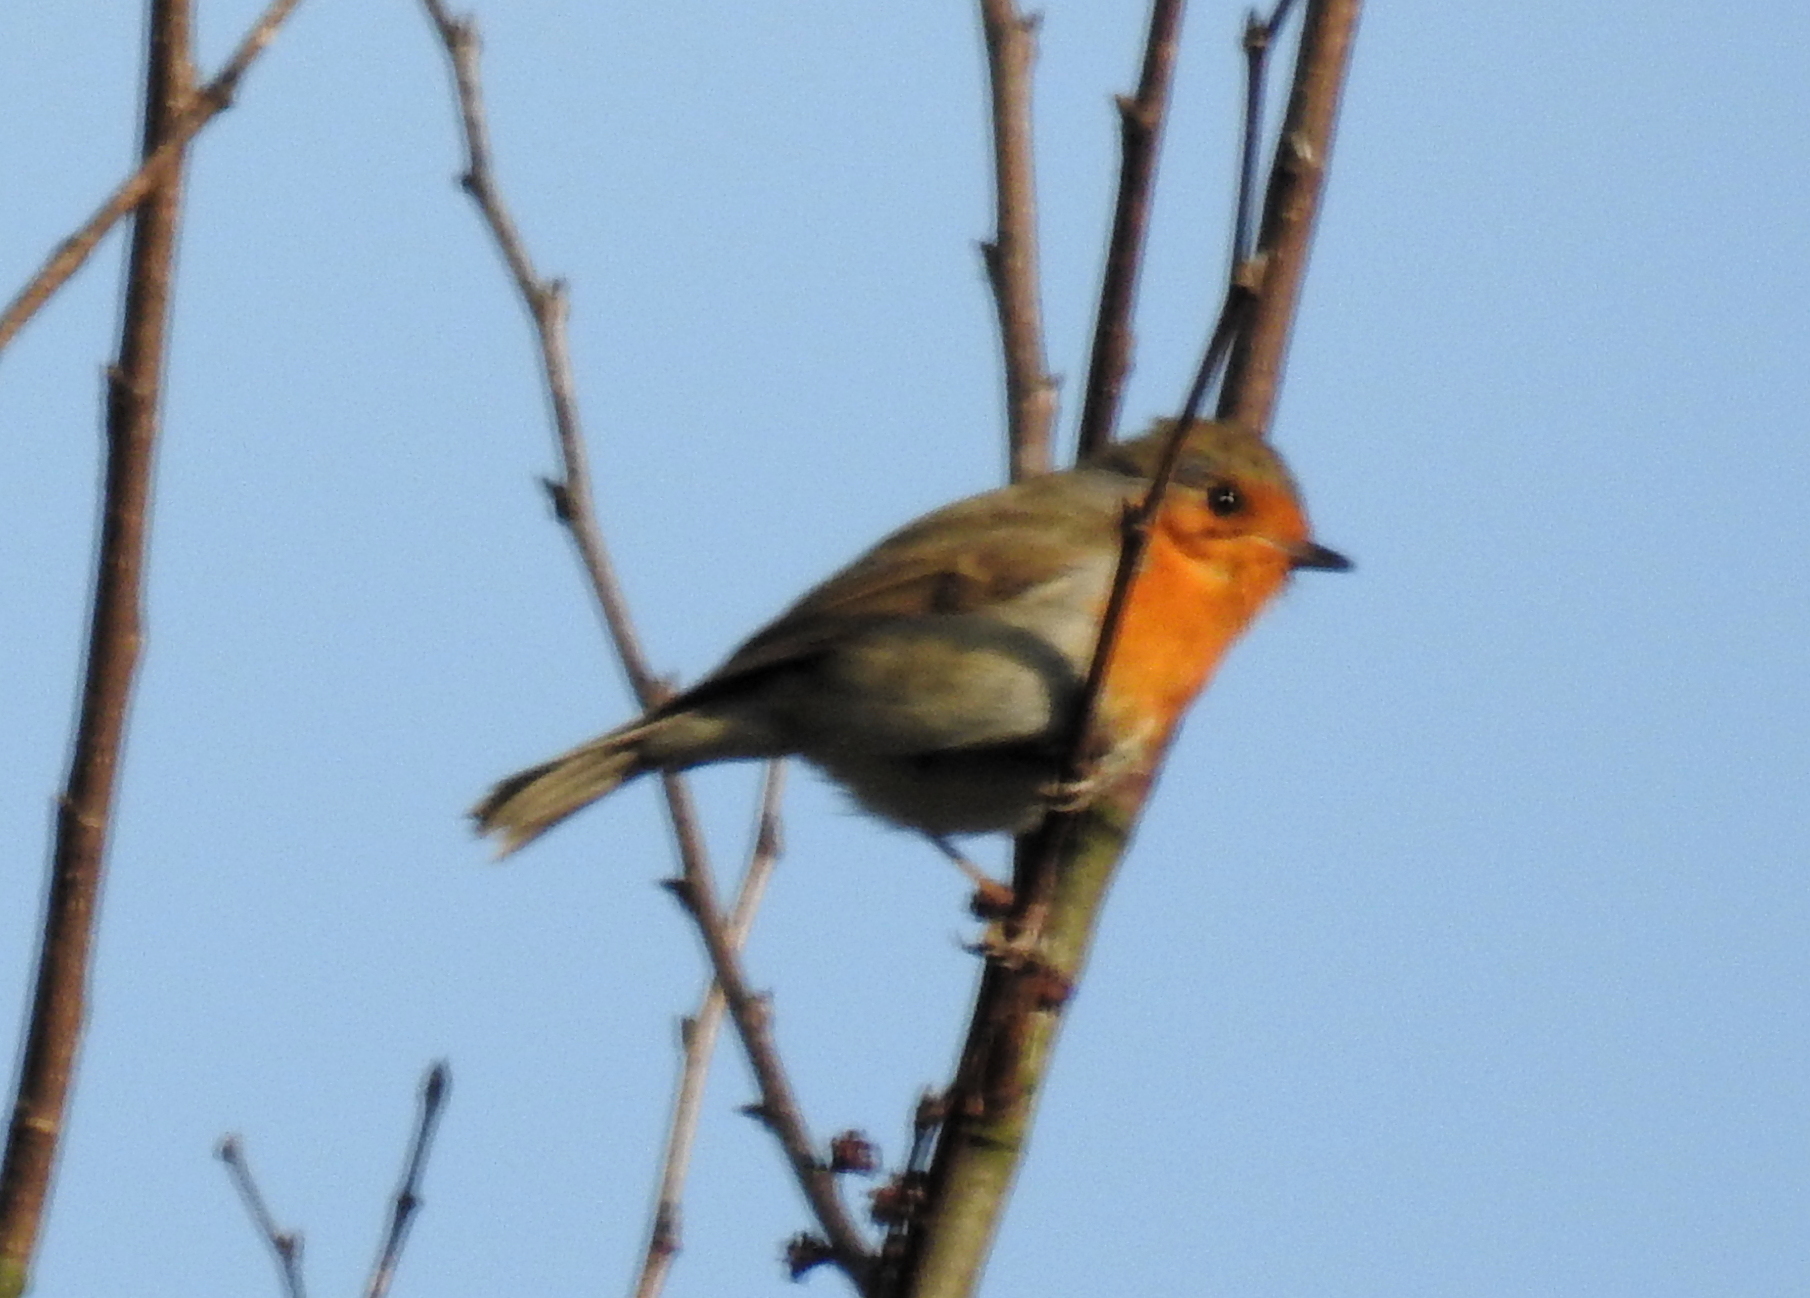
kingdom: Animalia
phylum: Chordata
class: Aves
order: Passeriformes
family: Muscicapidae
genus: Erithacus
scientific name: Erithacus rubecula
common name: European robin
